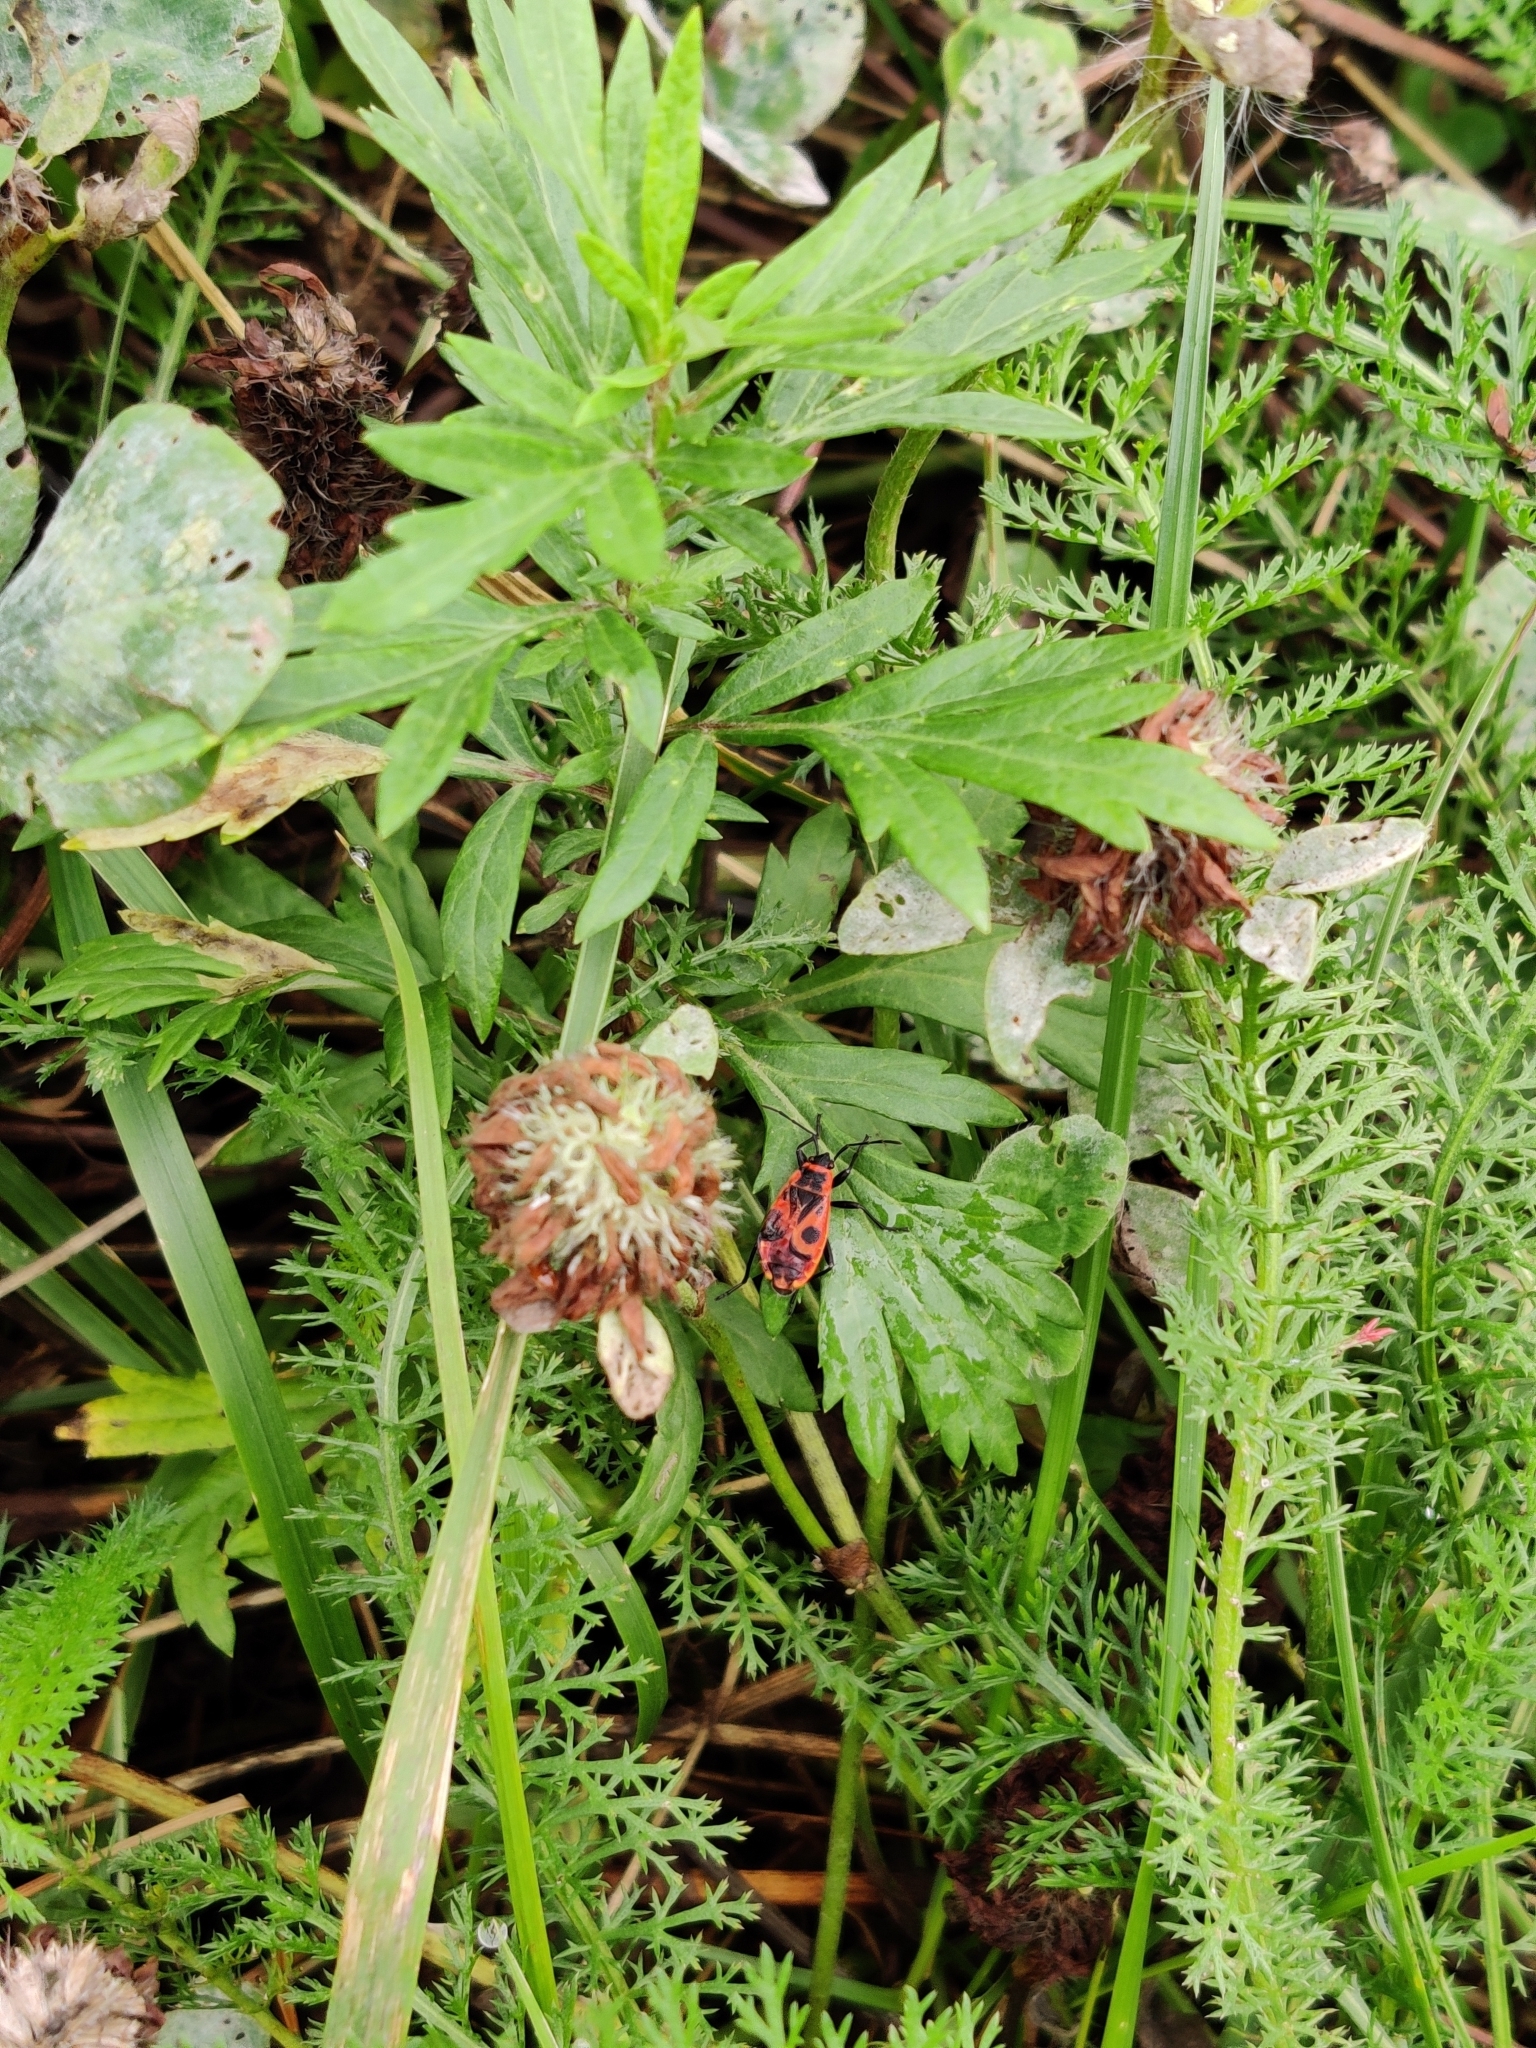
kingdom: Animalia
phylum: Arthropoda
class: Insecta
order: Hemiptera
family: Pyrrhocoridae
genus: Pyrrhocoris
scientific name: Pyrrhocoris apterus
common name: Firebug
